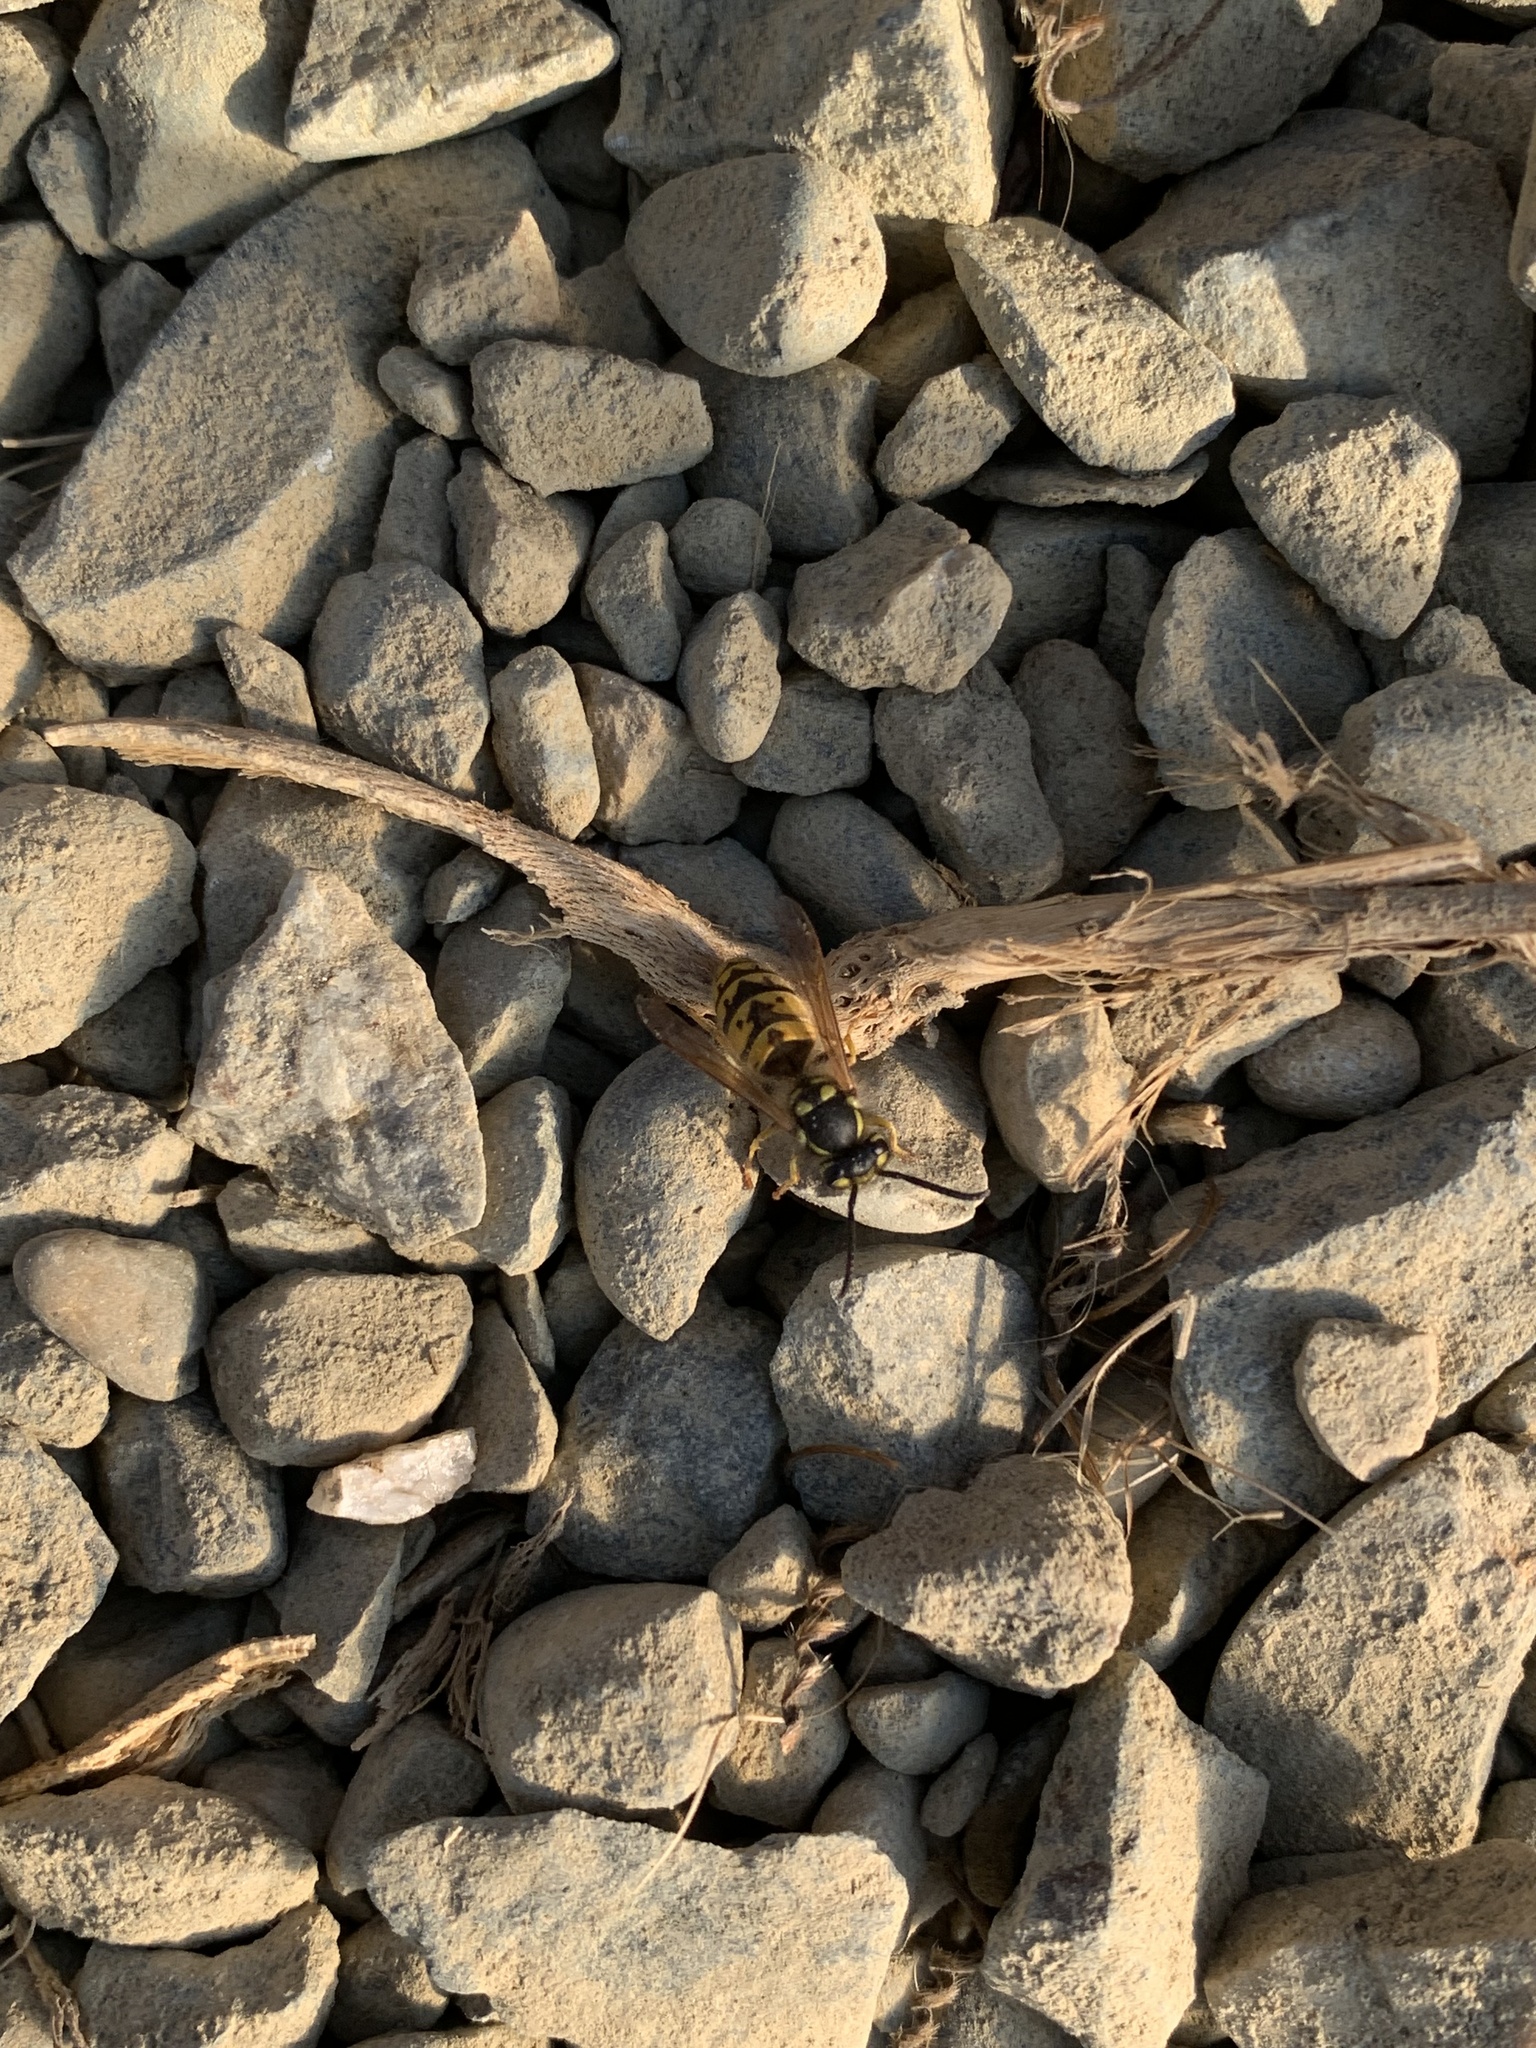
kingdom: Animalia
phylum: Arthropoda
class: Insecta
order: Hymenoptera
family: Vespidae
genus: Vespula
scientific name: Vespula germanica
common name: German wasp
